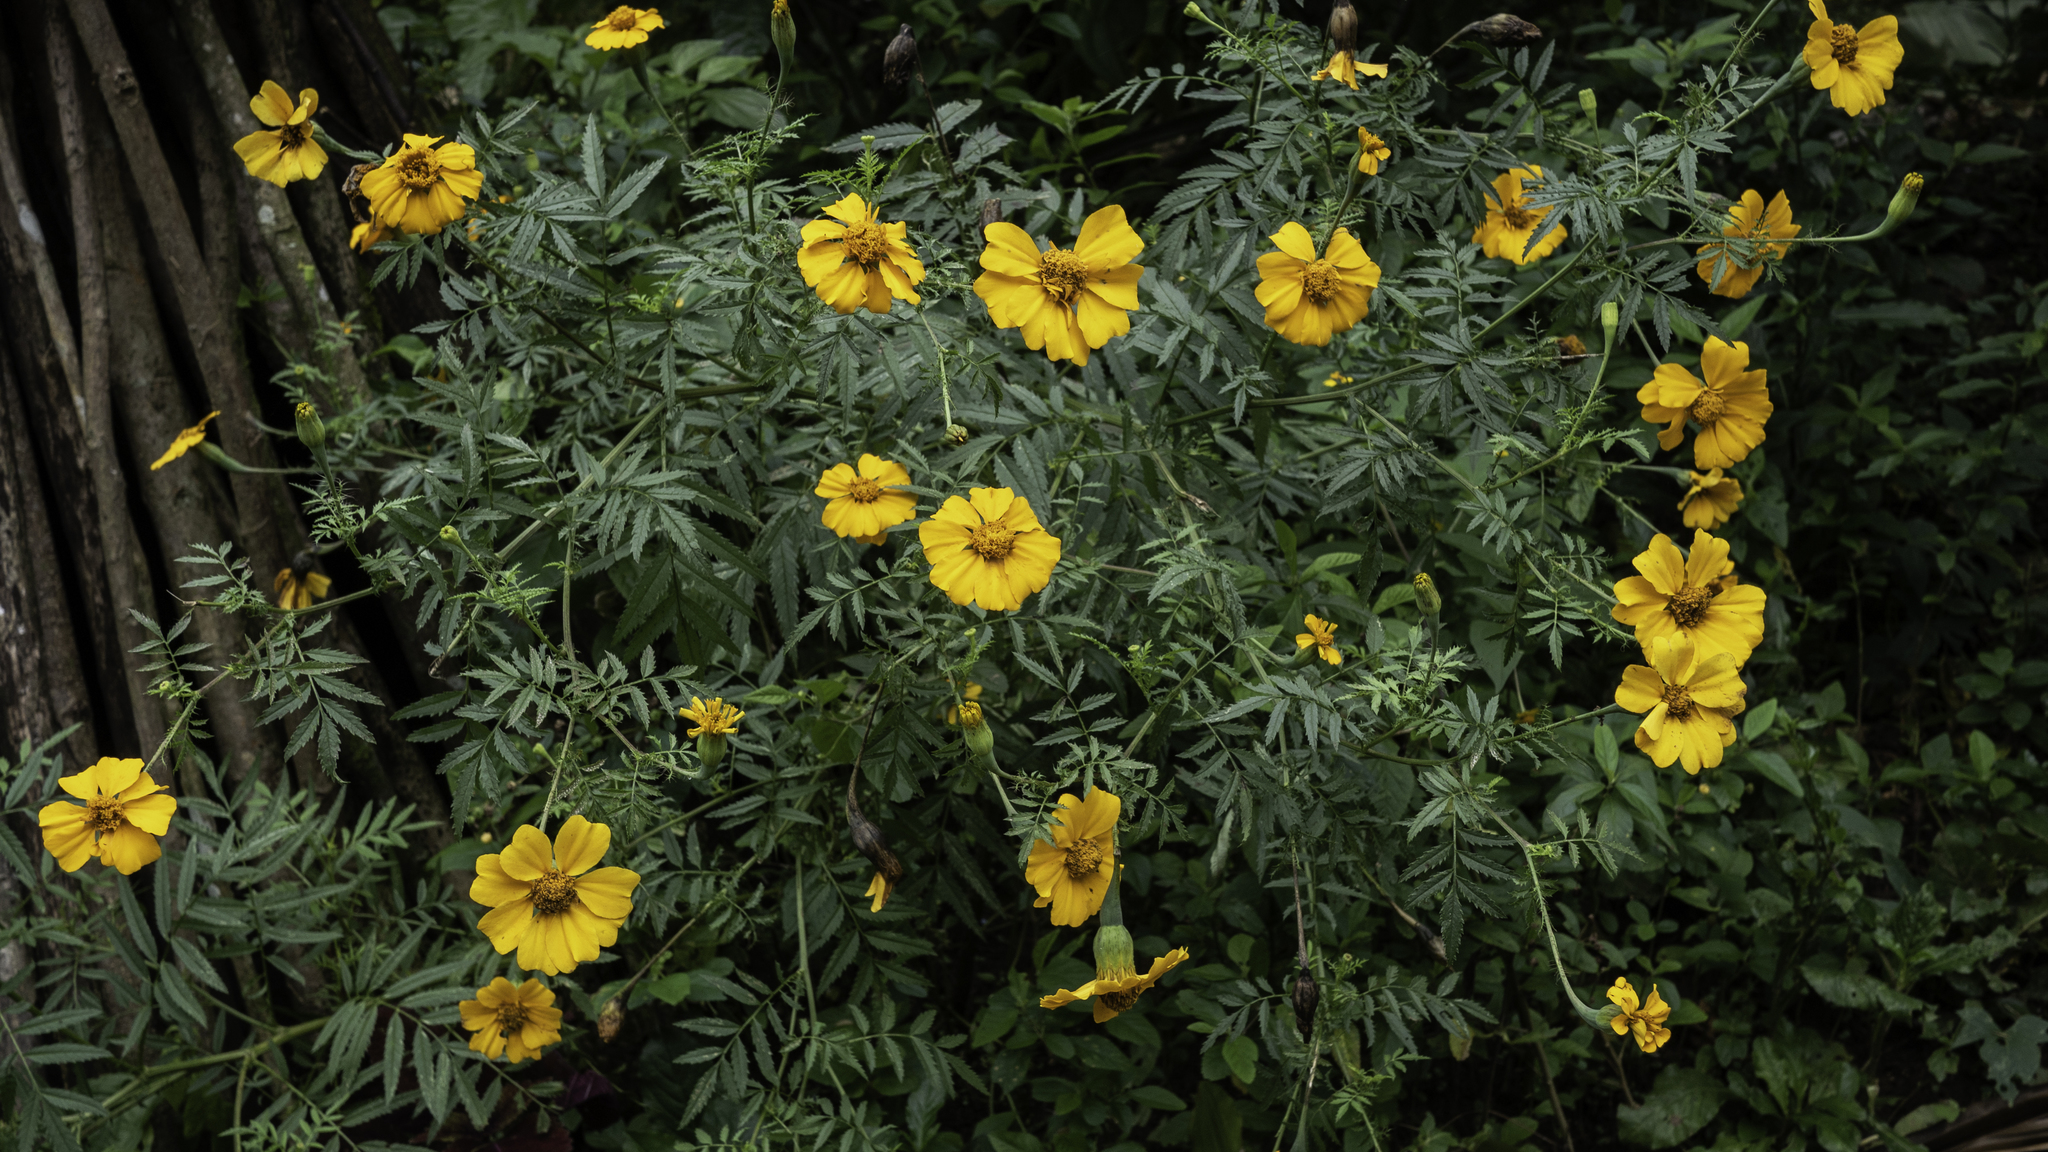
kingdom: Plantae
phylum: Tracheophyta
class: Magnoliopsida
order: Asterales
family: Asteraceae
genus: Tagetes
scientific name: Tagetes erecta
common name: African marigold
